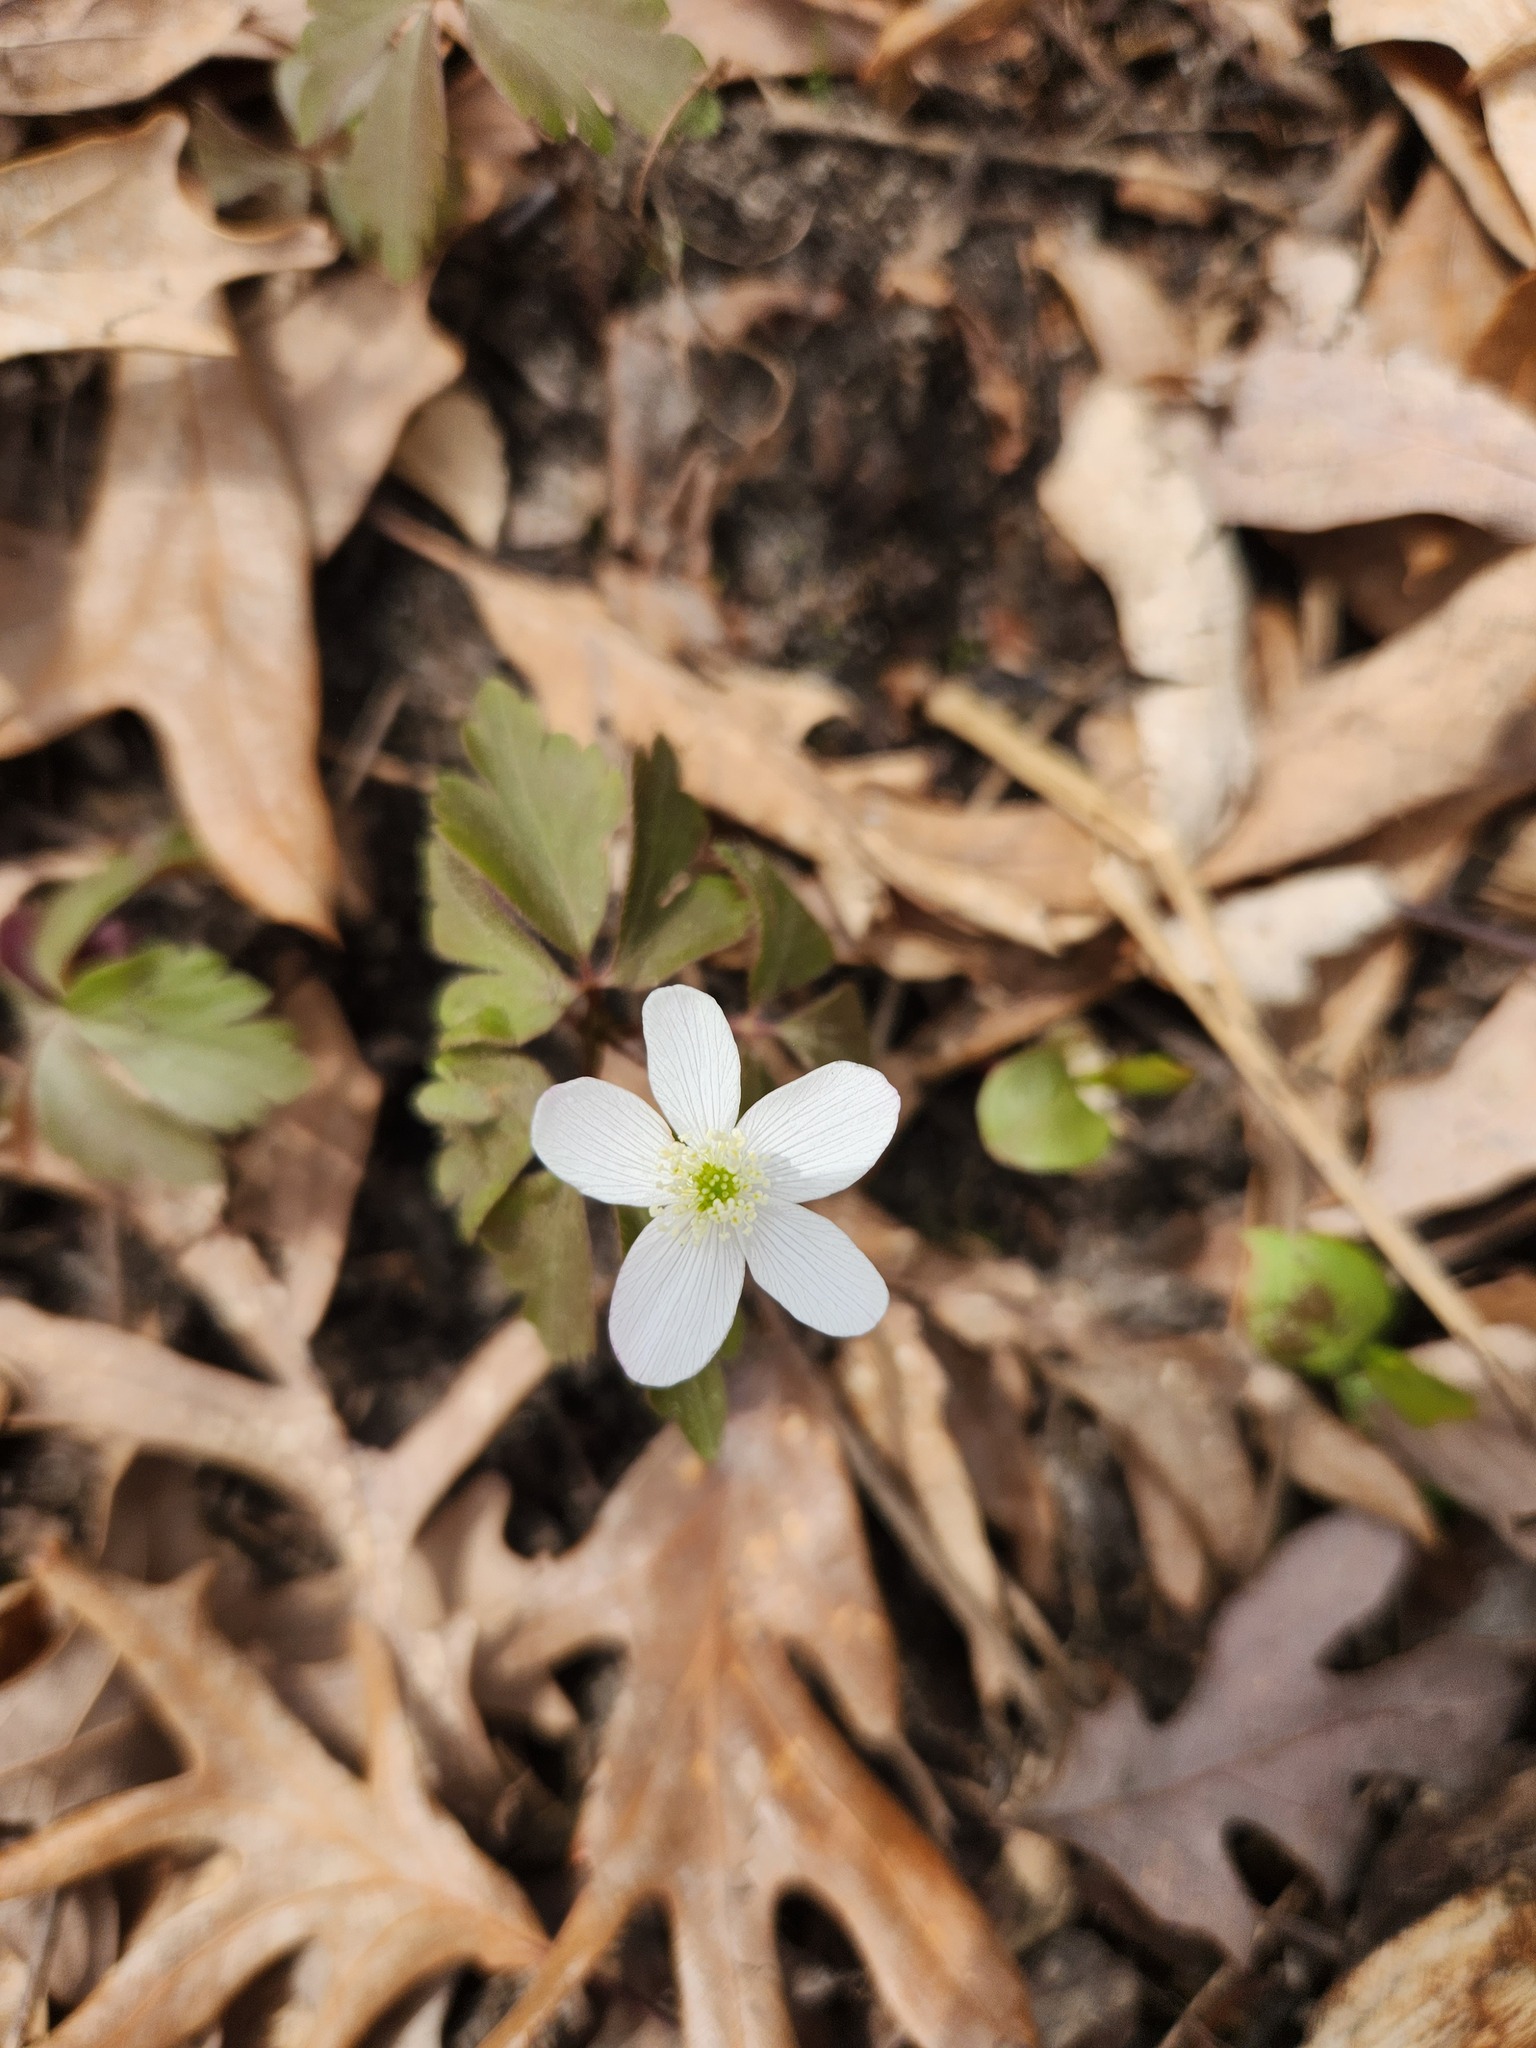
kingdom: Plantae
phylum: Tracheophyta
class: Magnoliopsida
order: Ranunculales
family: Ranunculaceae
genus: Anemone
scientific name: Anemone quinquefolia
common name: Wood anemone
